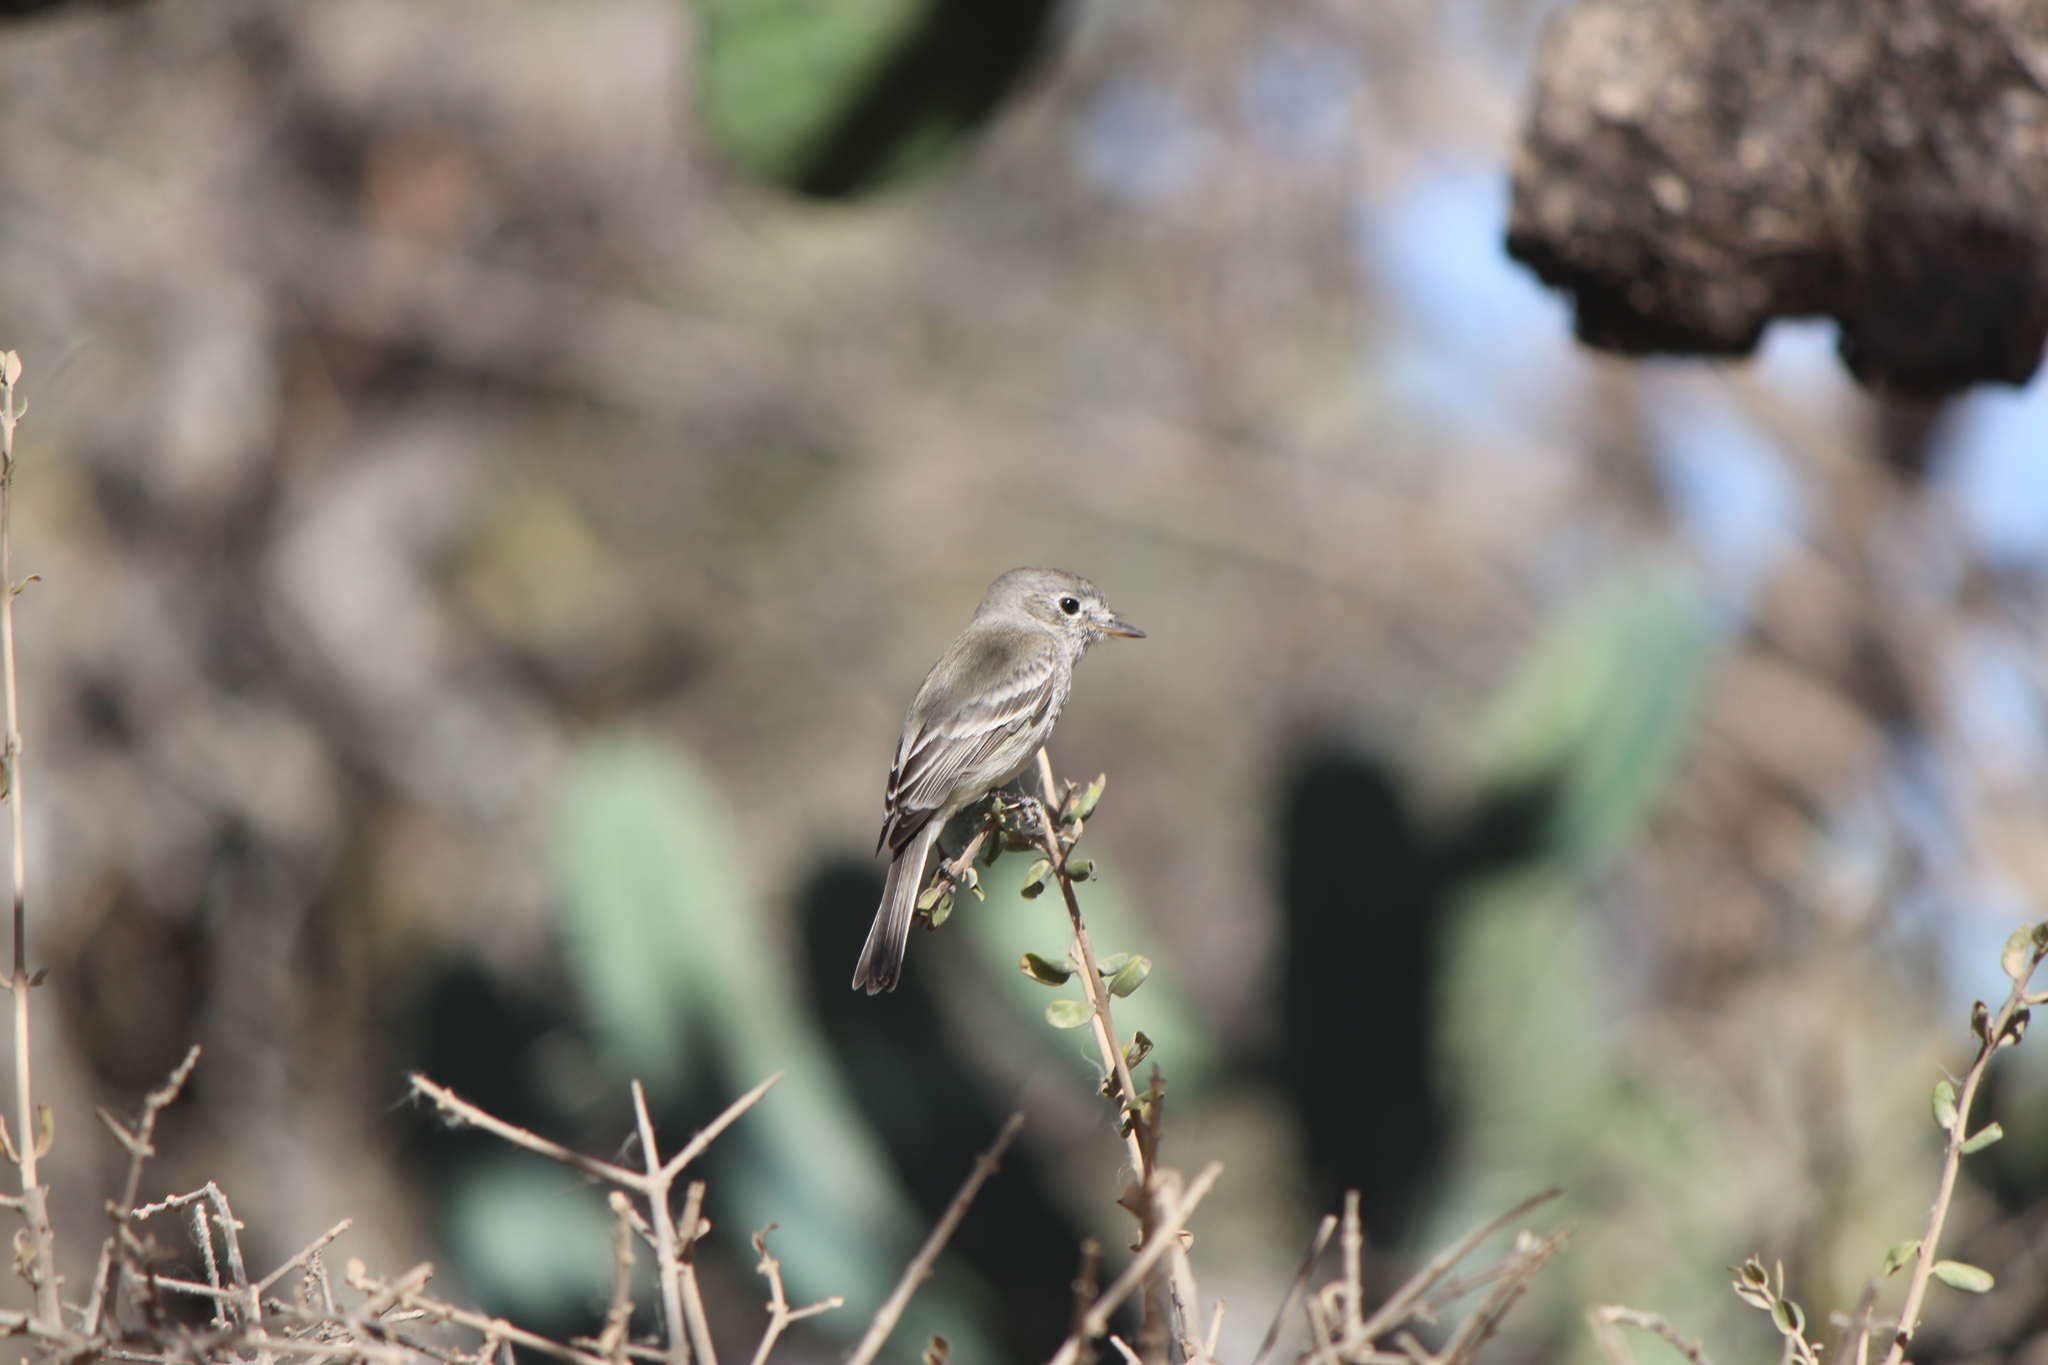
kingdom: Animalia
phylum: Chordata
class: Aves
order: Passeriformes
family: Tyrannidae
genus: Empidonax
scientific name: Empidonax wrightii
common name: Gray flycatcher
